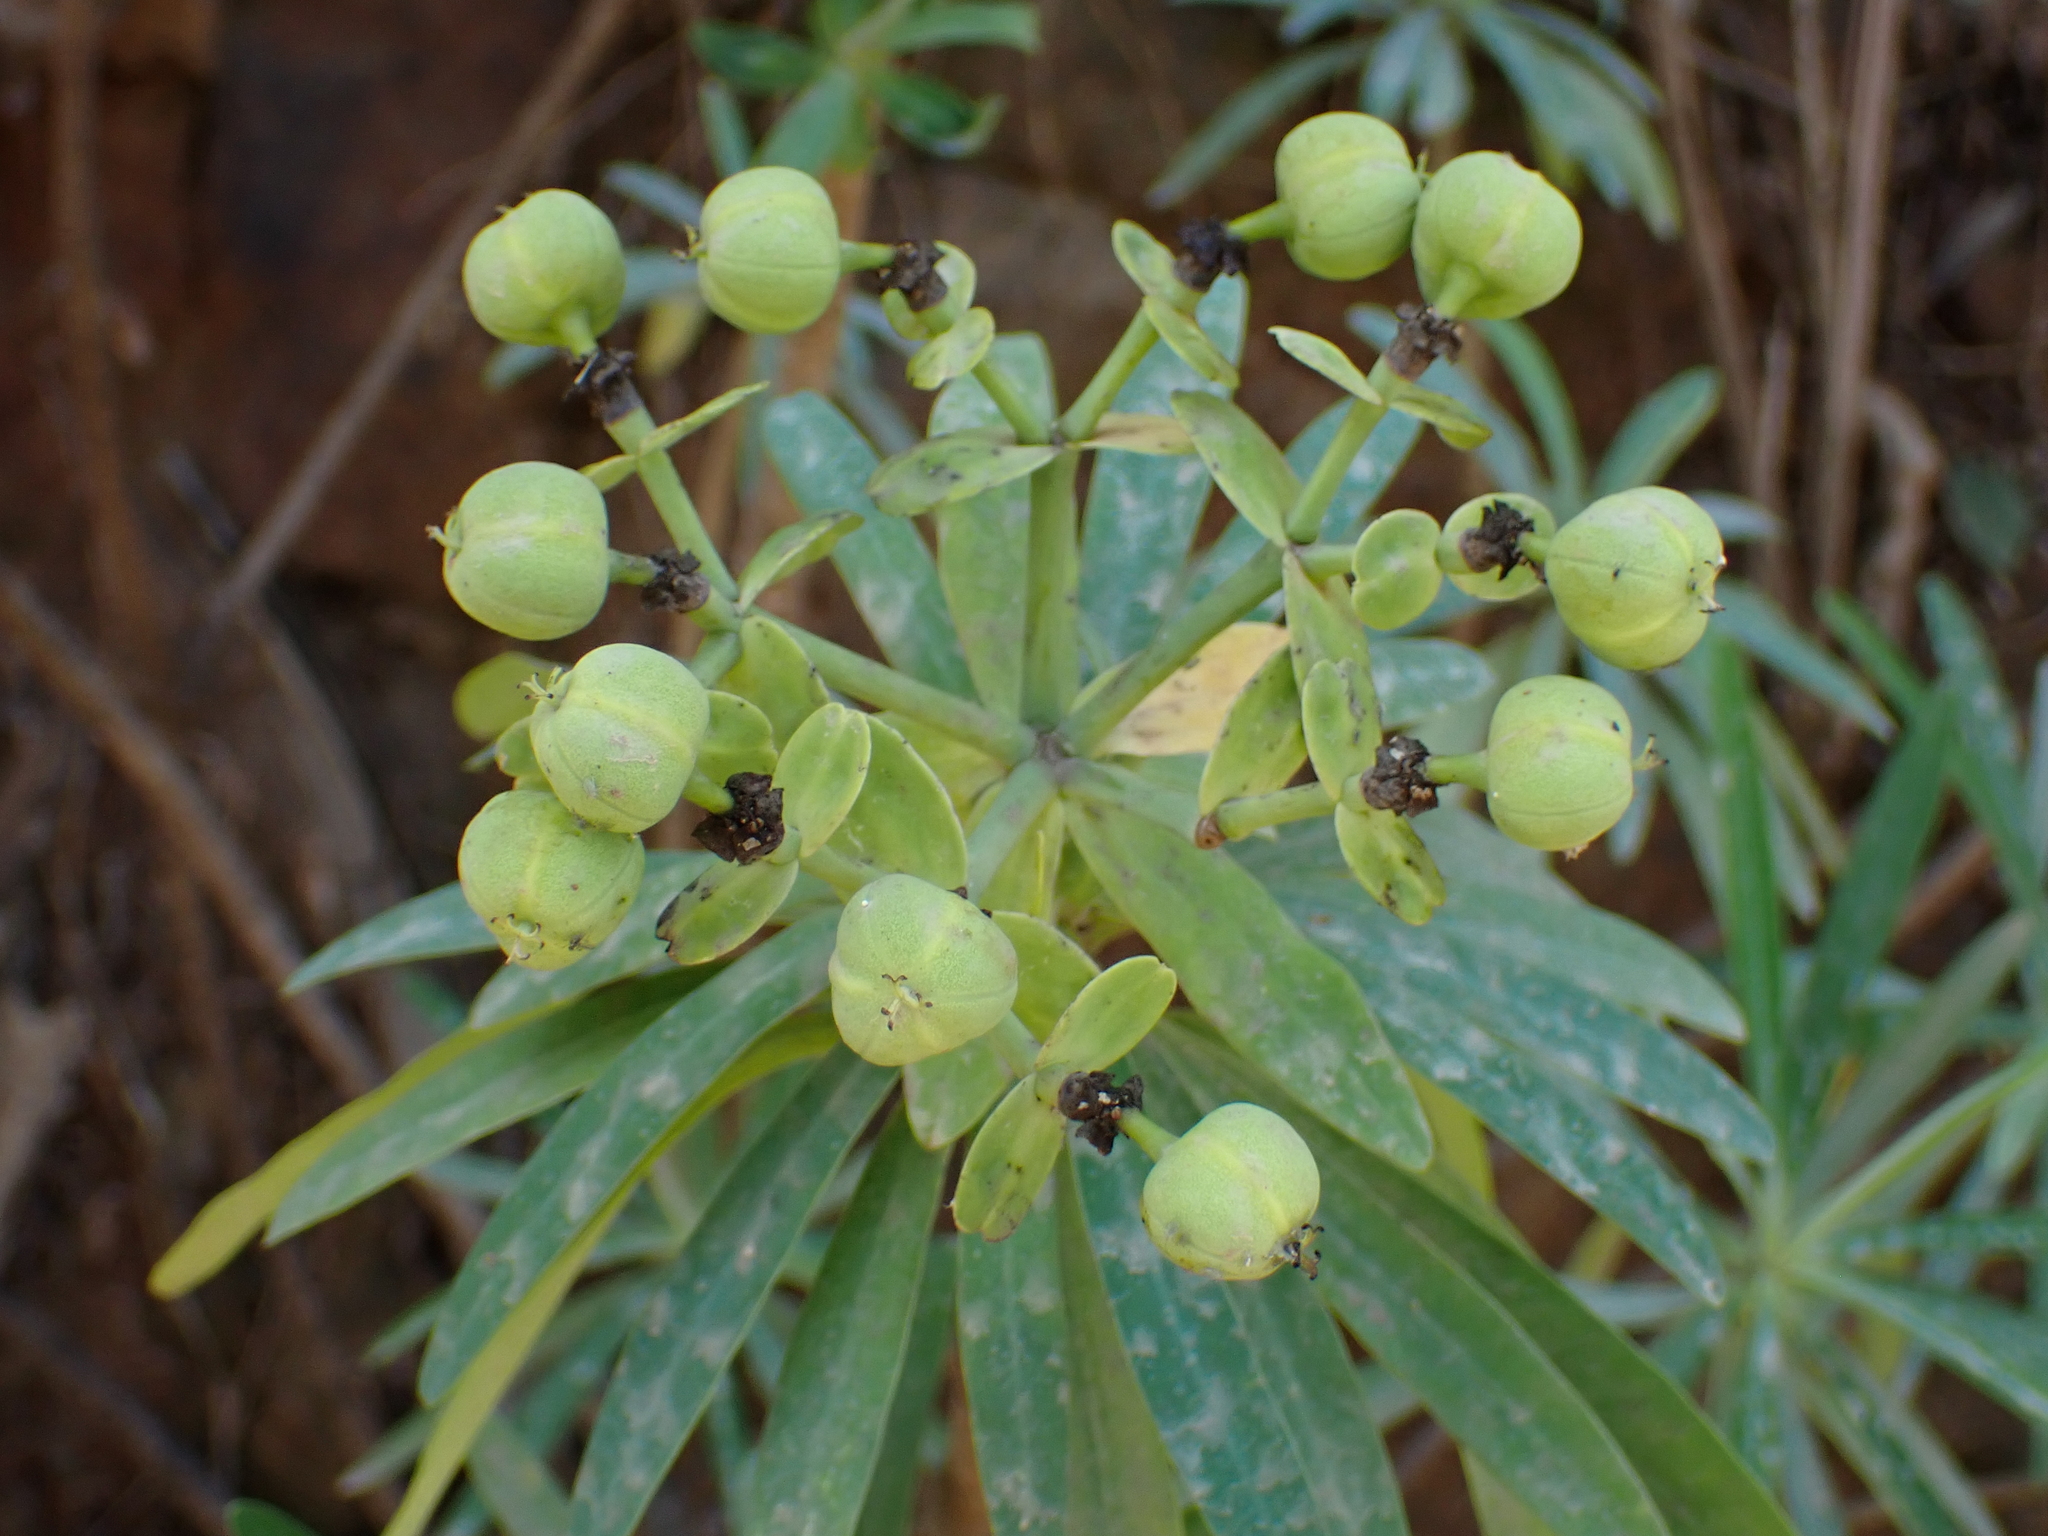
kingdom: Plantae
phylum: Tracheophyta
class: Magnoliopsida
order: Malpighiales
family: Euphorbiaceae
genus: Euphorbia
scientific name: Euphorbia tuckeyana
